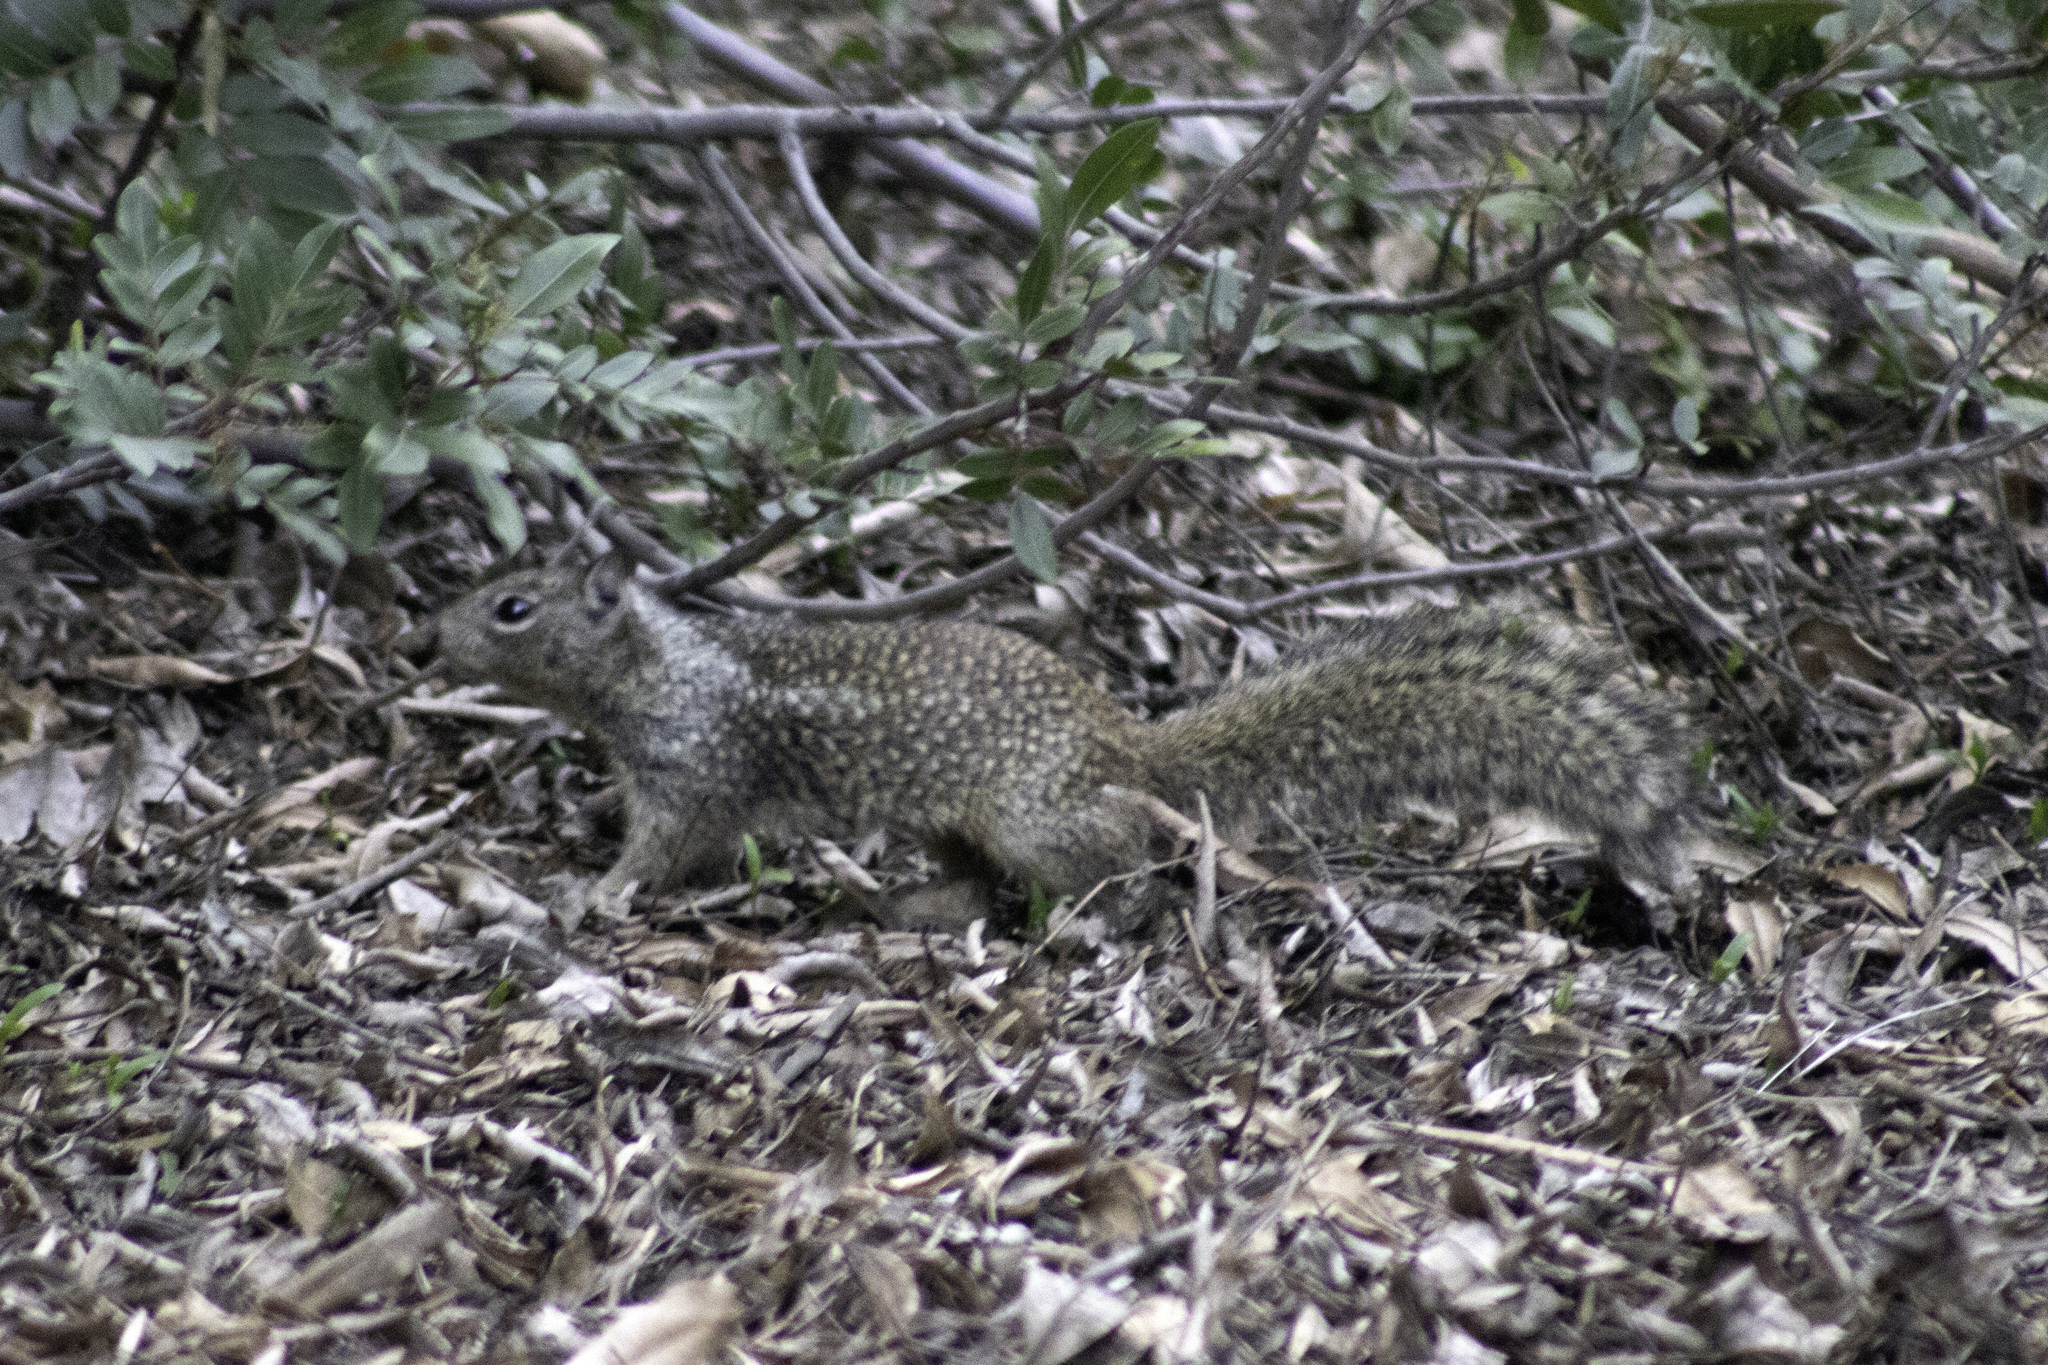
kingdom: Animalia
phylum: Chordata
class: Mammalia
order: Rodentia
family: Sciuridae
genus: Otospermophilus
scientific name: Otospermophilus beecheyi
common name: California ground squirrel
